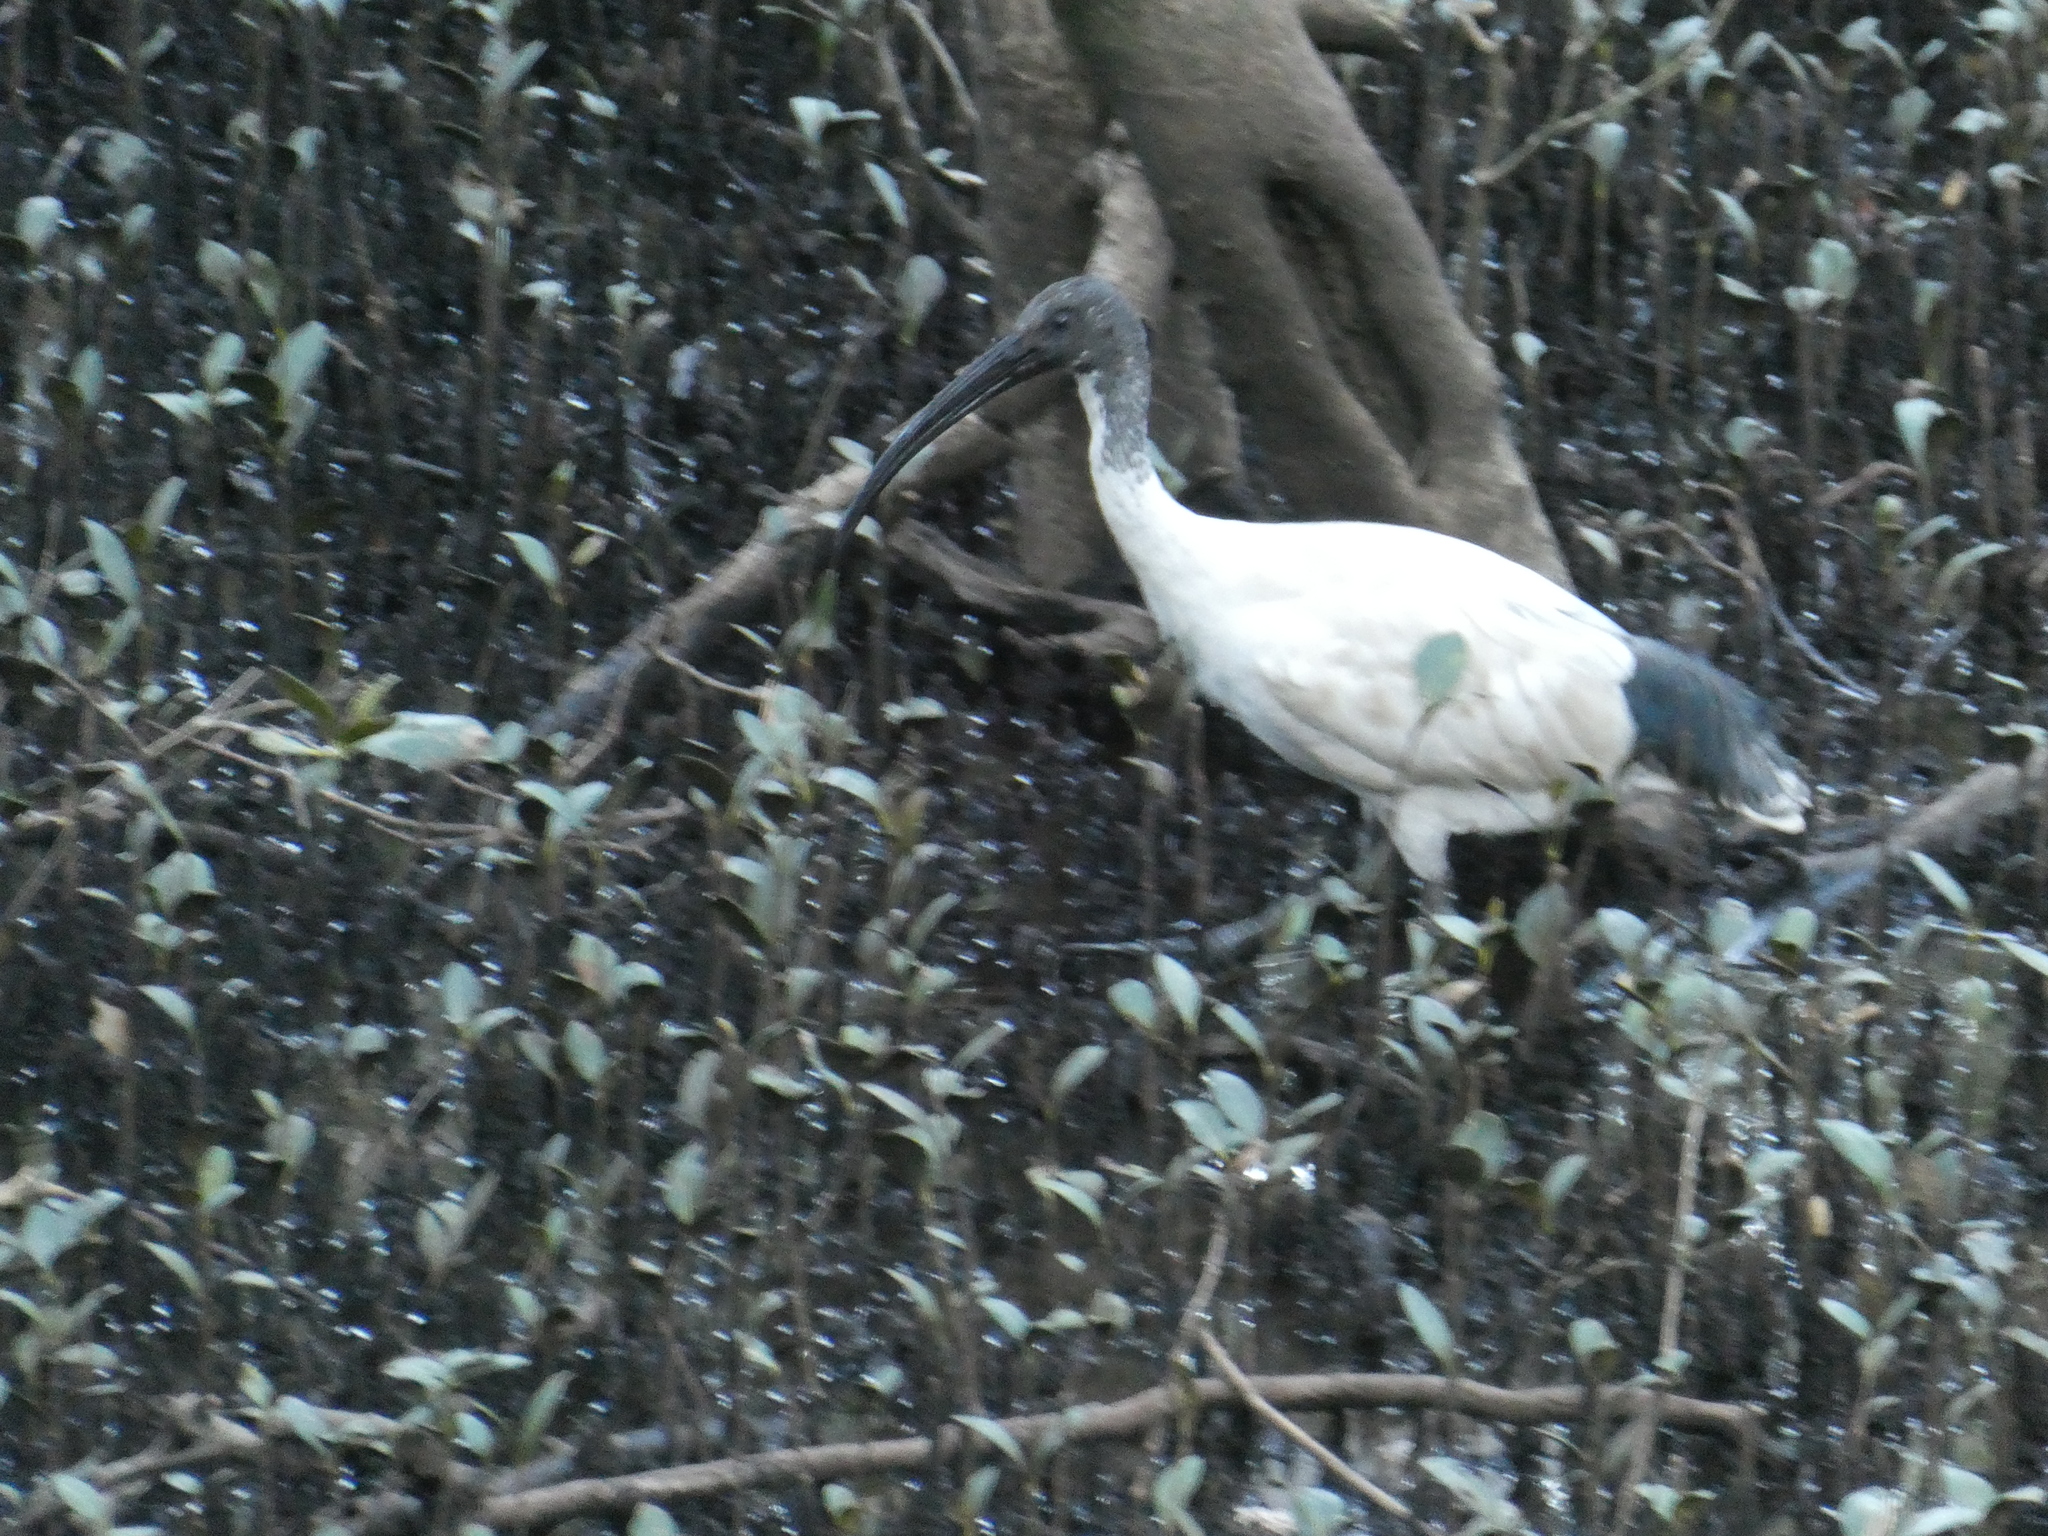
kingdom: Animalia
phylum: Chordata
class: Aves
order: Pelecaniformes
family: Threskiornithidae
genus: Threskiornis
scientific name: Threskiornis molucca
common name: Australian white ibis
